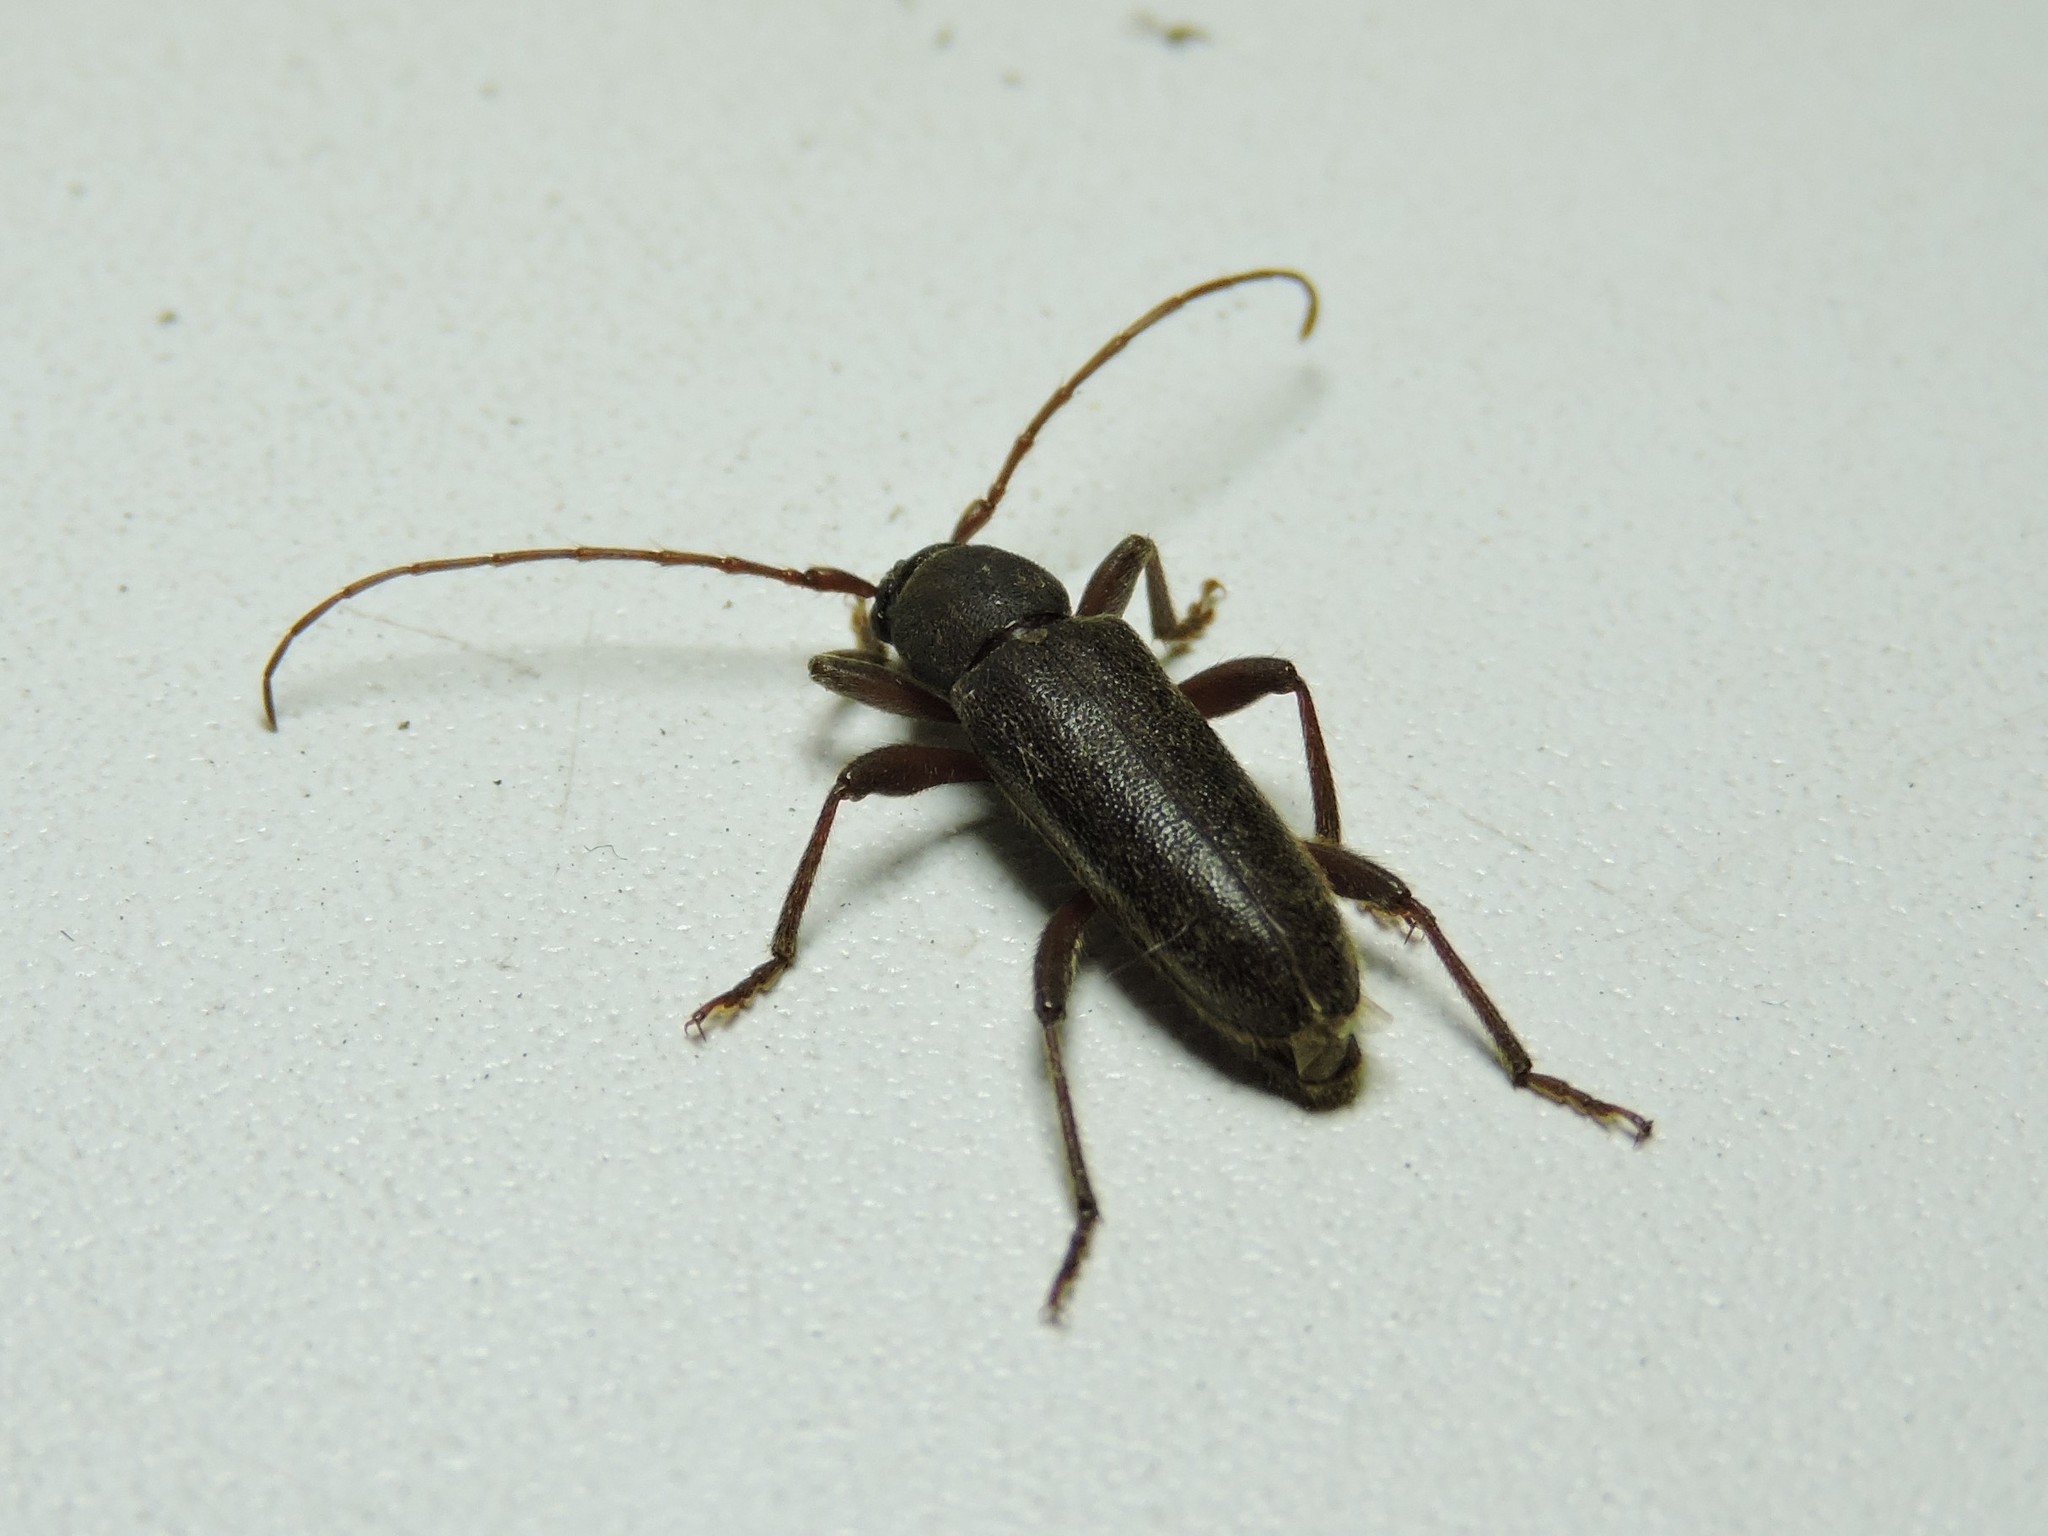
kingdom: Animalia
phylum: Arthropoda
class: Insecta
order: Coleoptera
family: Cerambycidae
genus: Trichoferus
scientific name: Trichoferus campestris
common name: Velvet long horned beetle
